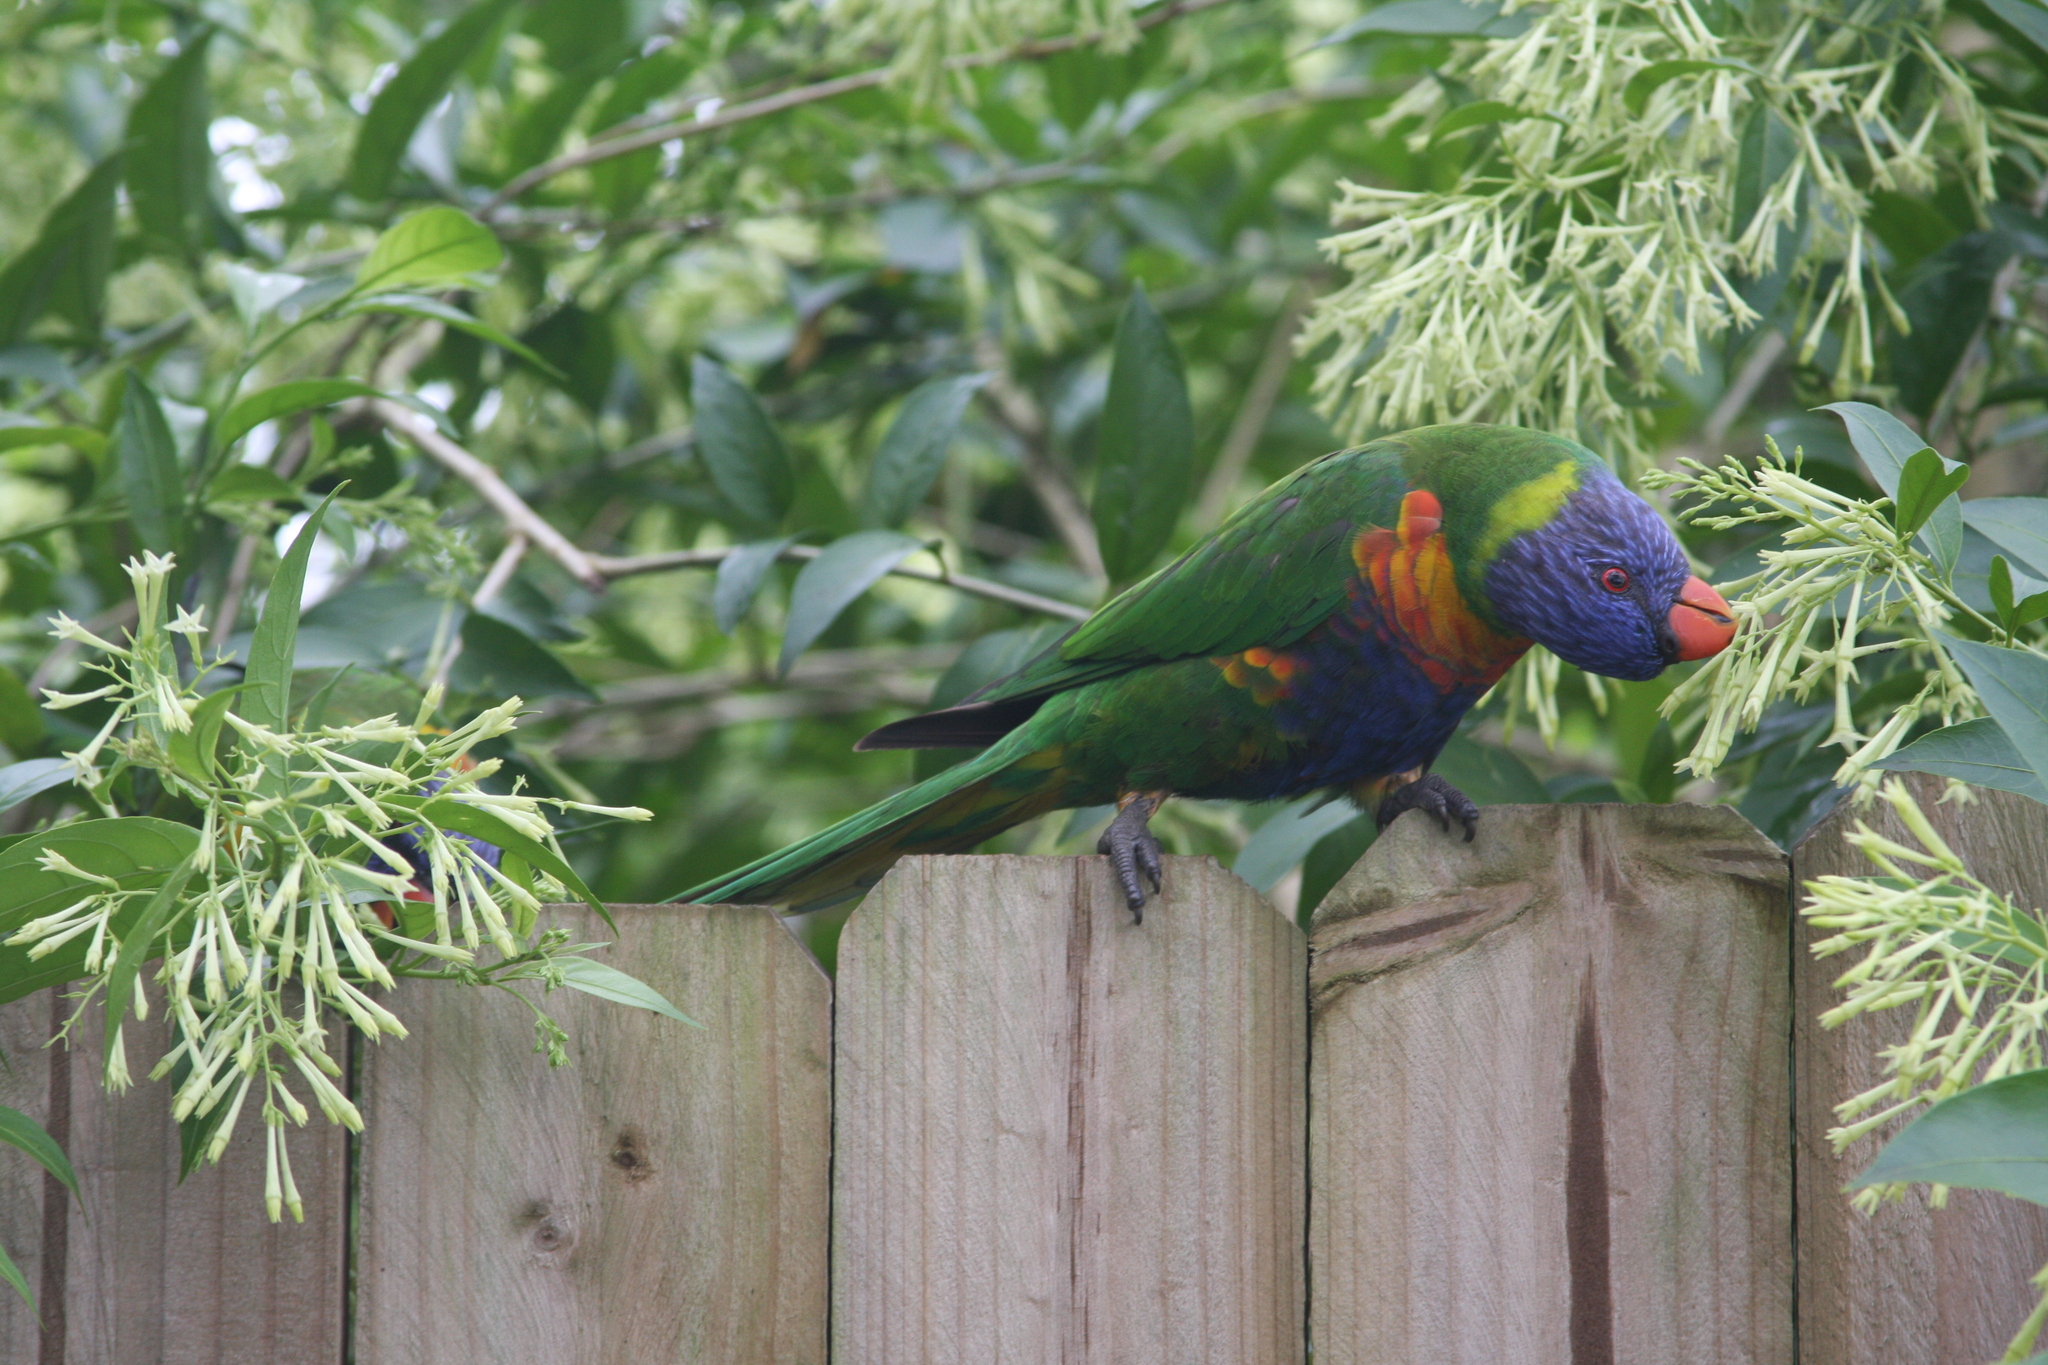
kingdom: Animalia
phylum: Chordata
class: Aves
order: Psittaciformes
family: Psittacidae
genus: Trichoglossus
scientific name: Trichoglossus haematodus
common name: Coconut lorikeet
